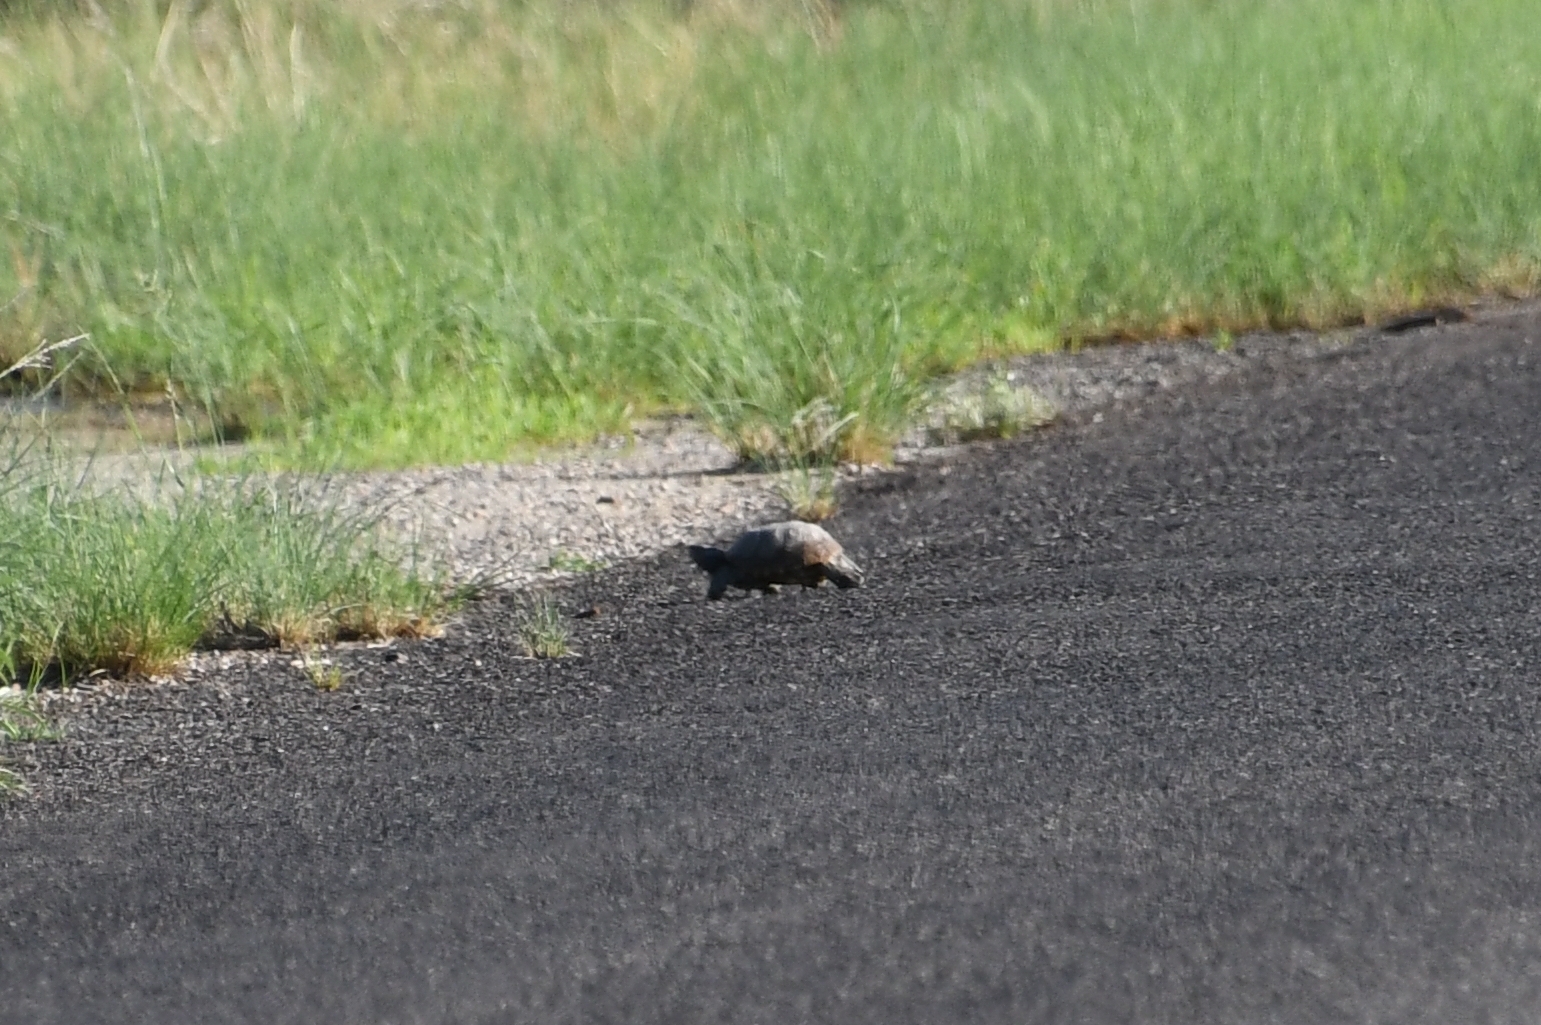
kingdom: Animalia
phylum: Chordata
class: Testudines
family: Emydidae
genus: Terrapene
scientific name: Terrapene ornata
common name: Western box turtle
